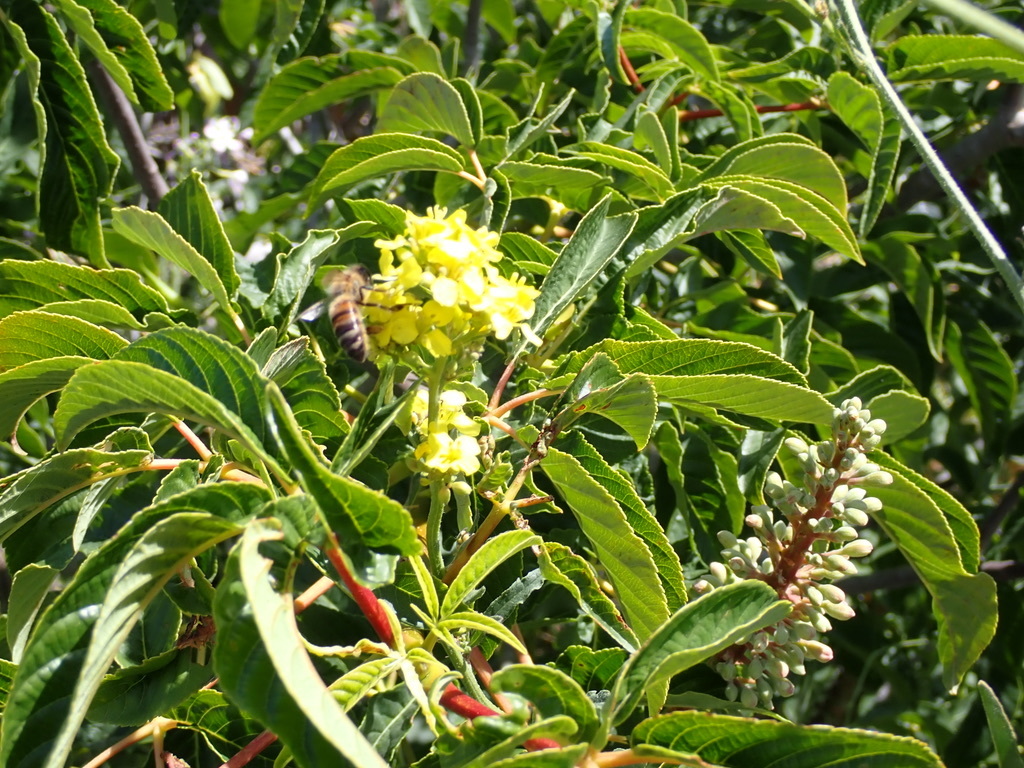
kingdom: Plantae
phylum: Tracheophyta
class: Magnoliopsida
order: Sapindales
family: Sapindaceae
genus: Aesculus
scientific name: Aesculus californica
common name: California buckeye
